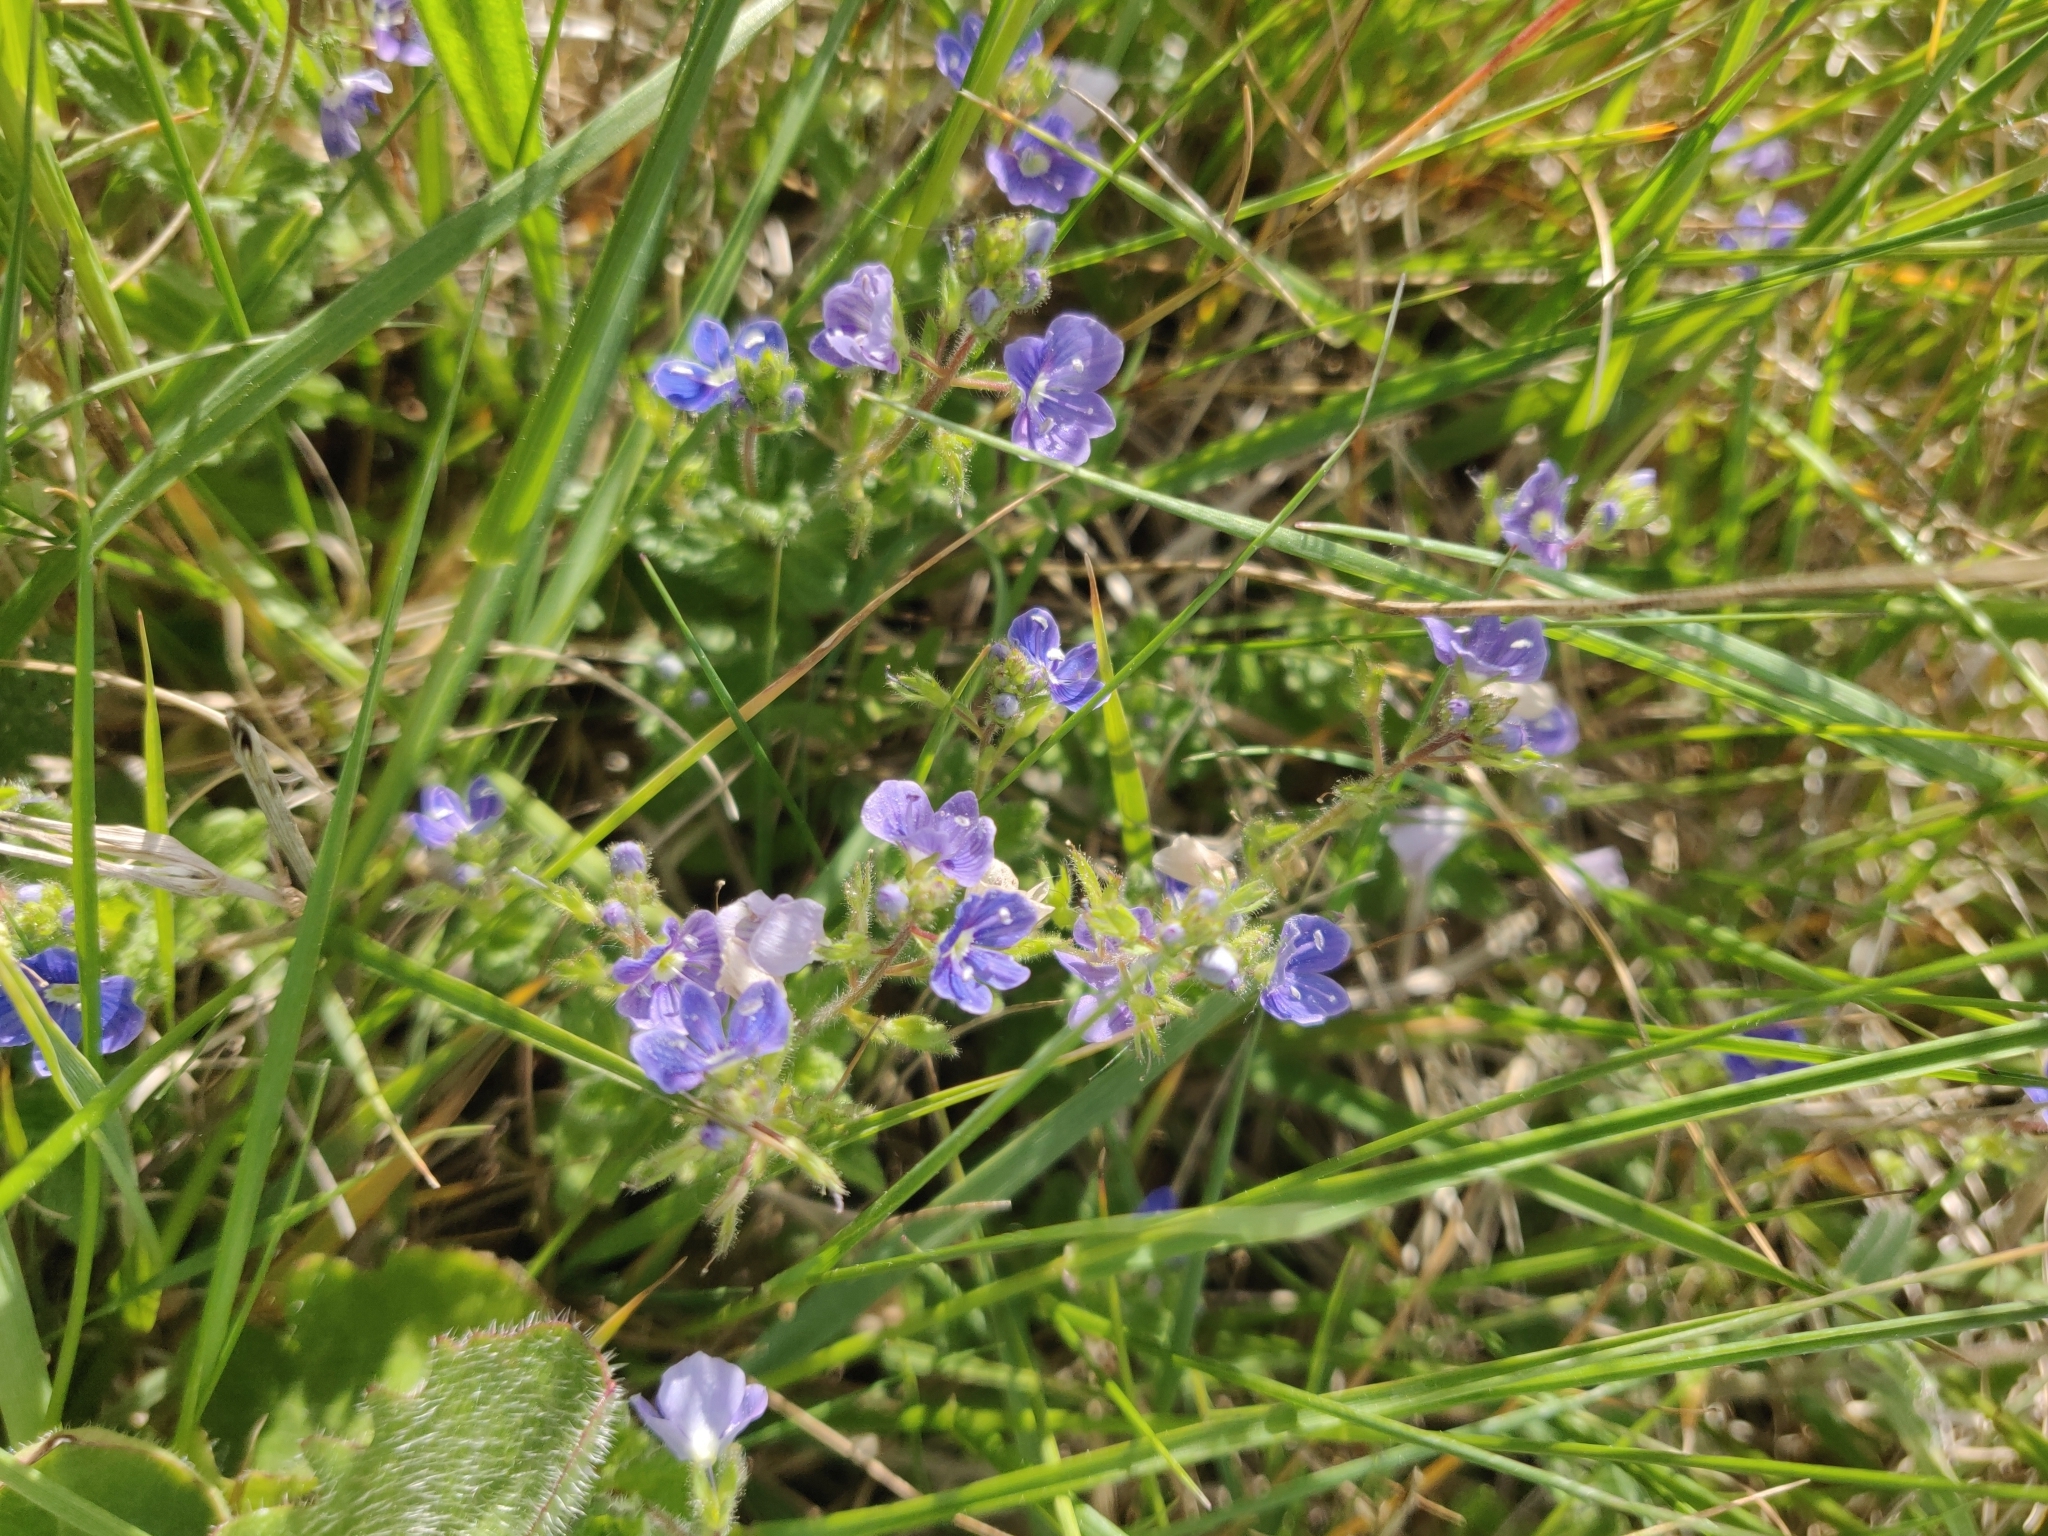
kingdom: Plantae
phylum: Tracheophyta
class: Magnoliopsida
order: Lamiales
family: Plantaginaceae
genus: Veronica
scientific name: Veronica chamaedrys
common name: Germander speedwell
